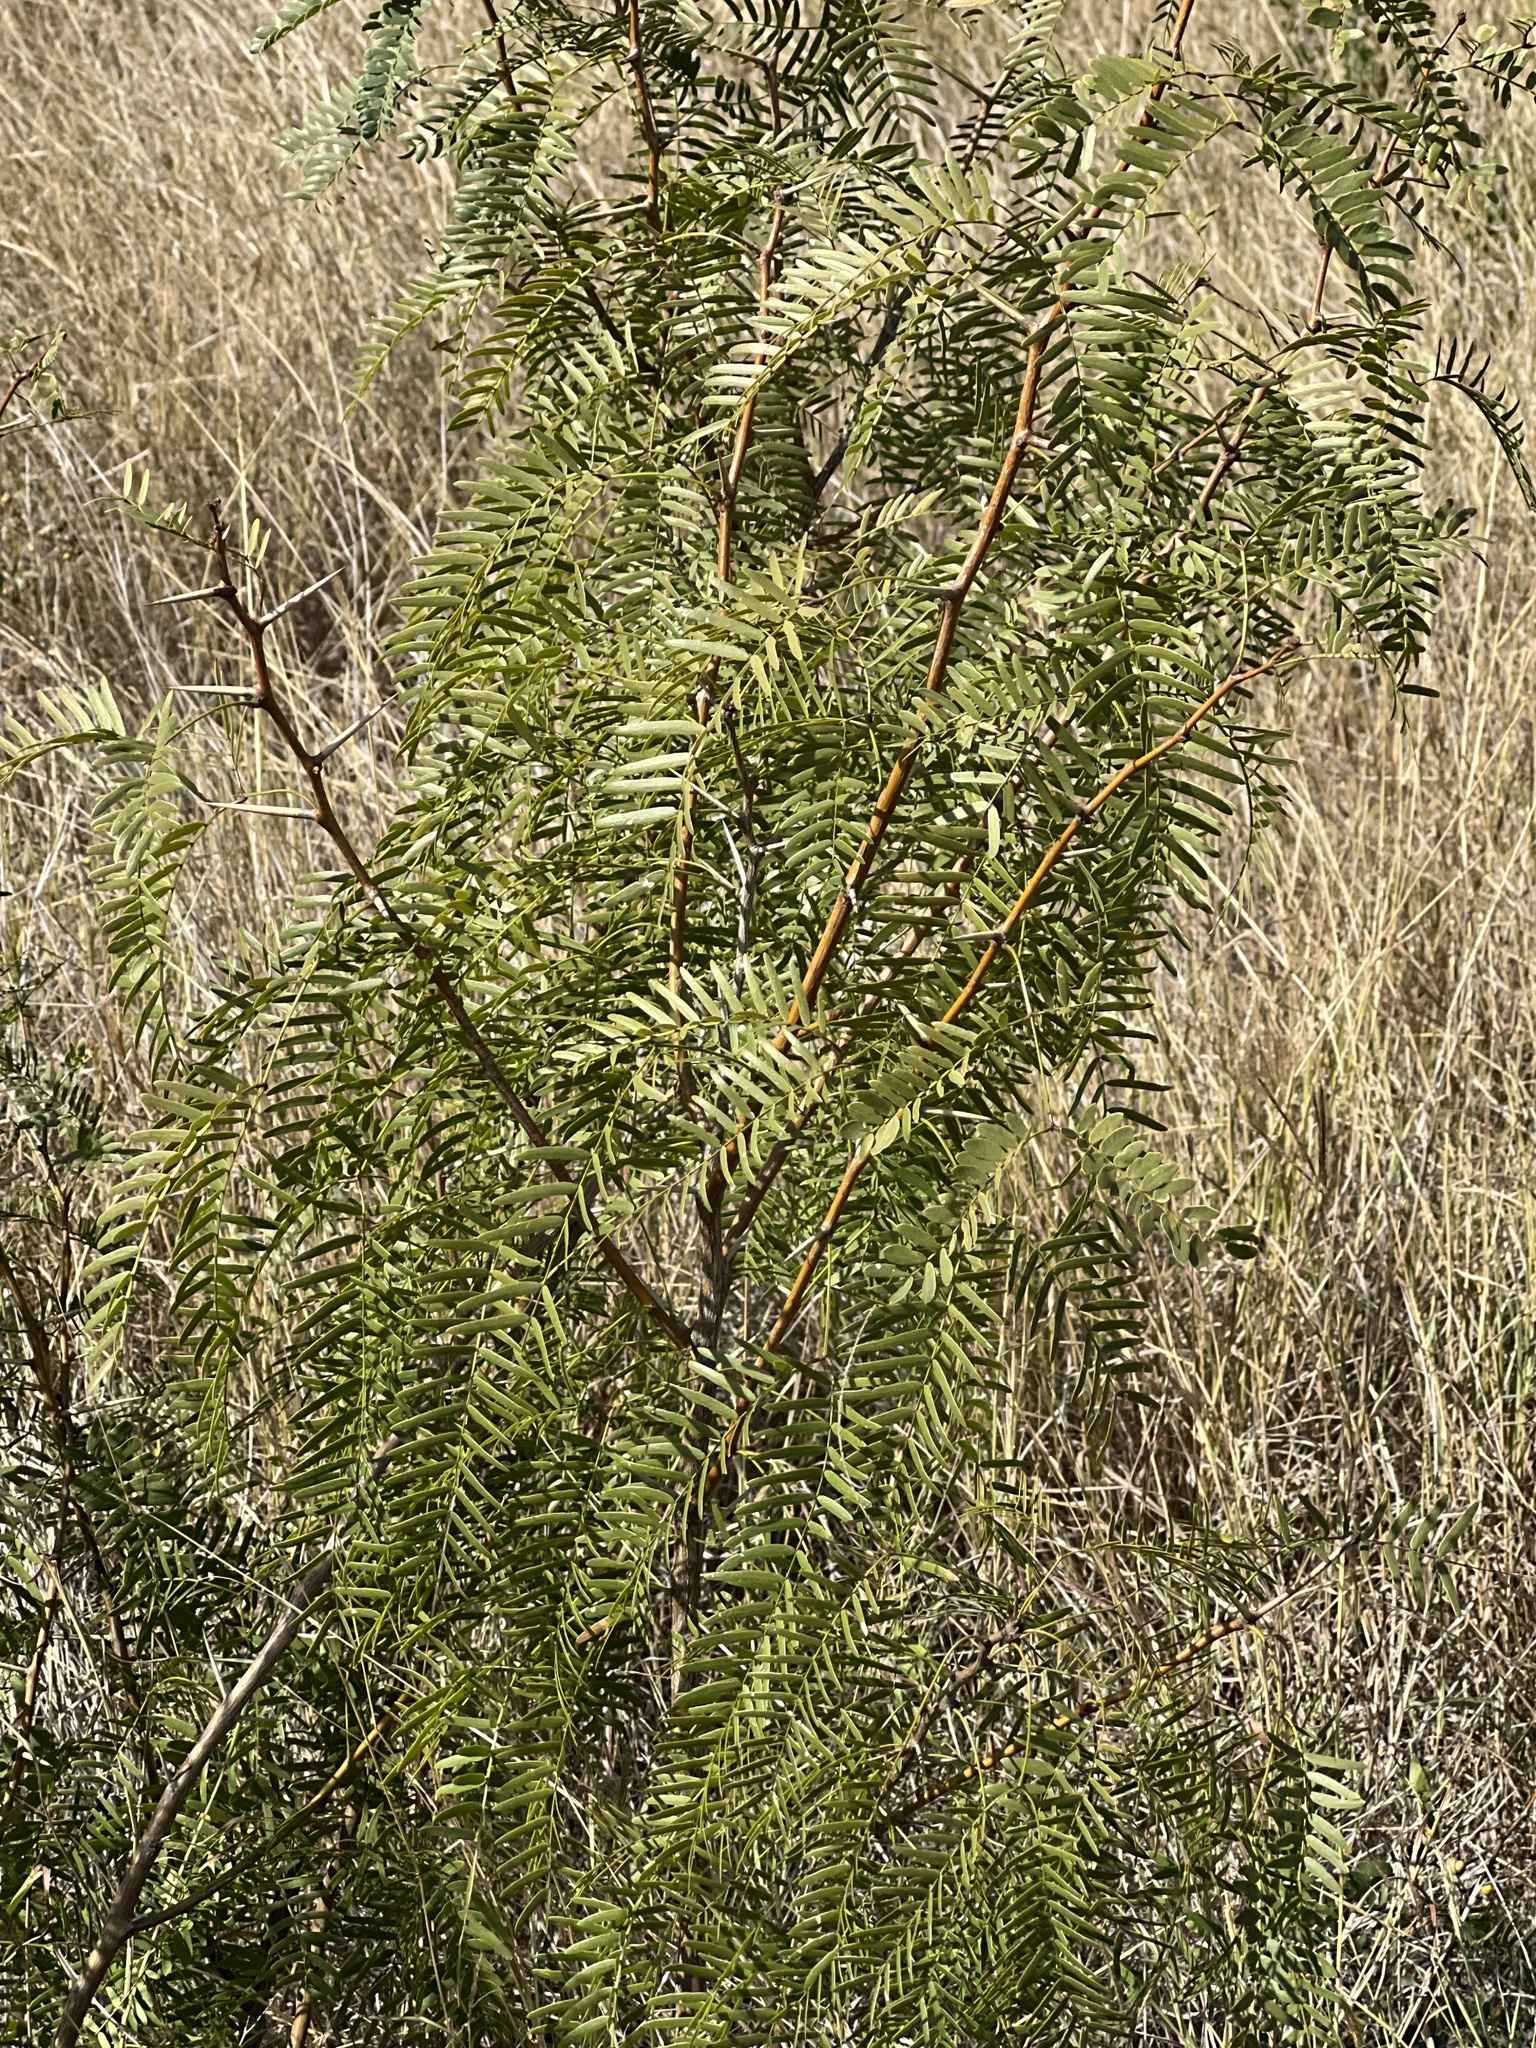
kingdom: Plantae
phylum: Tracheophyta
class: Magnoliopsida
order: Fabales
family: Fabaceae
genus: Prosopis
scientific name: Prosopis glandulosa
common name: Honey mesquite
